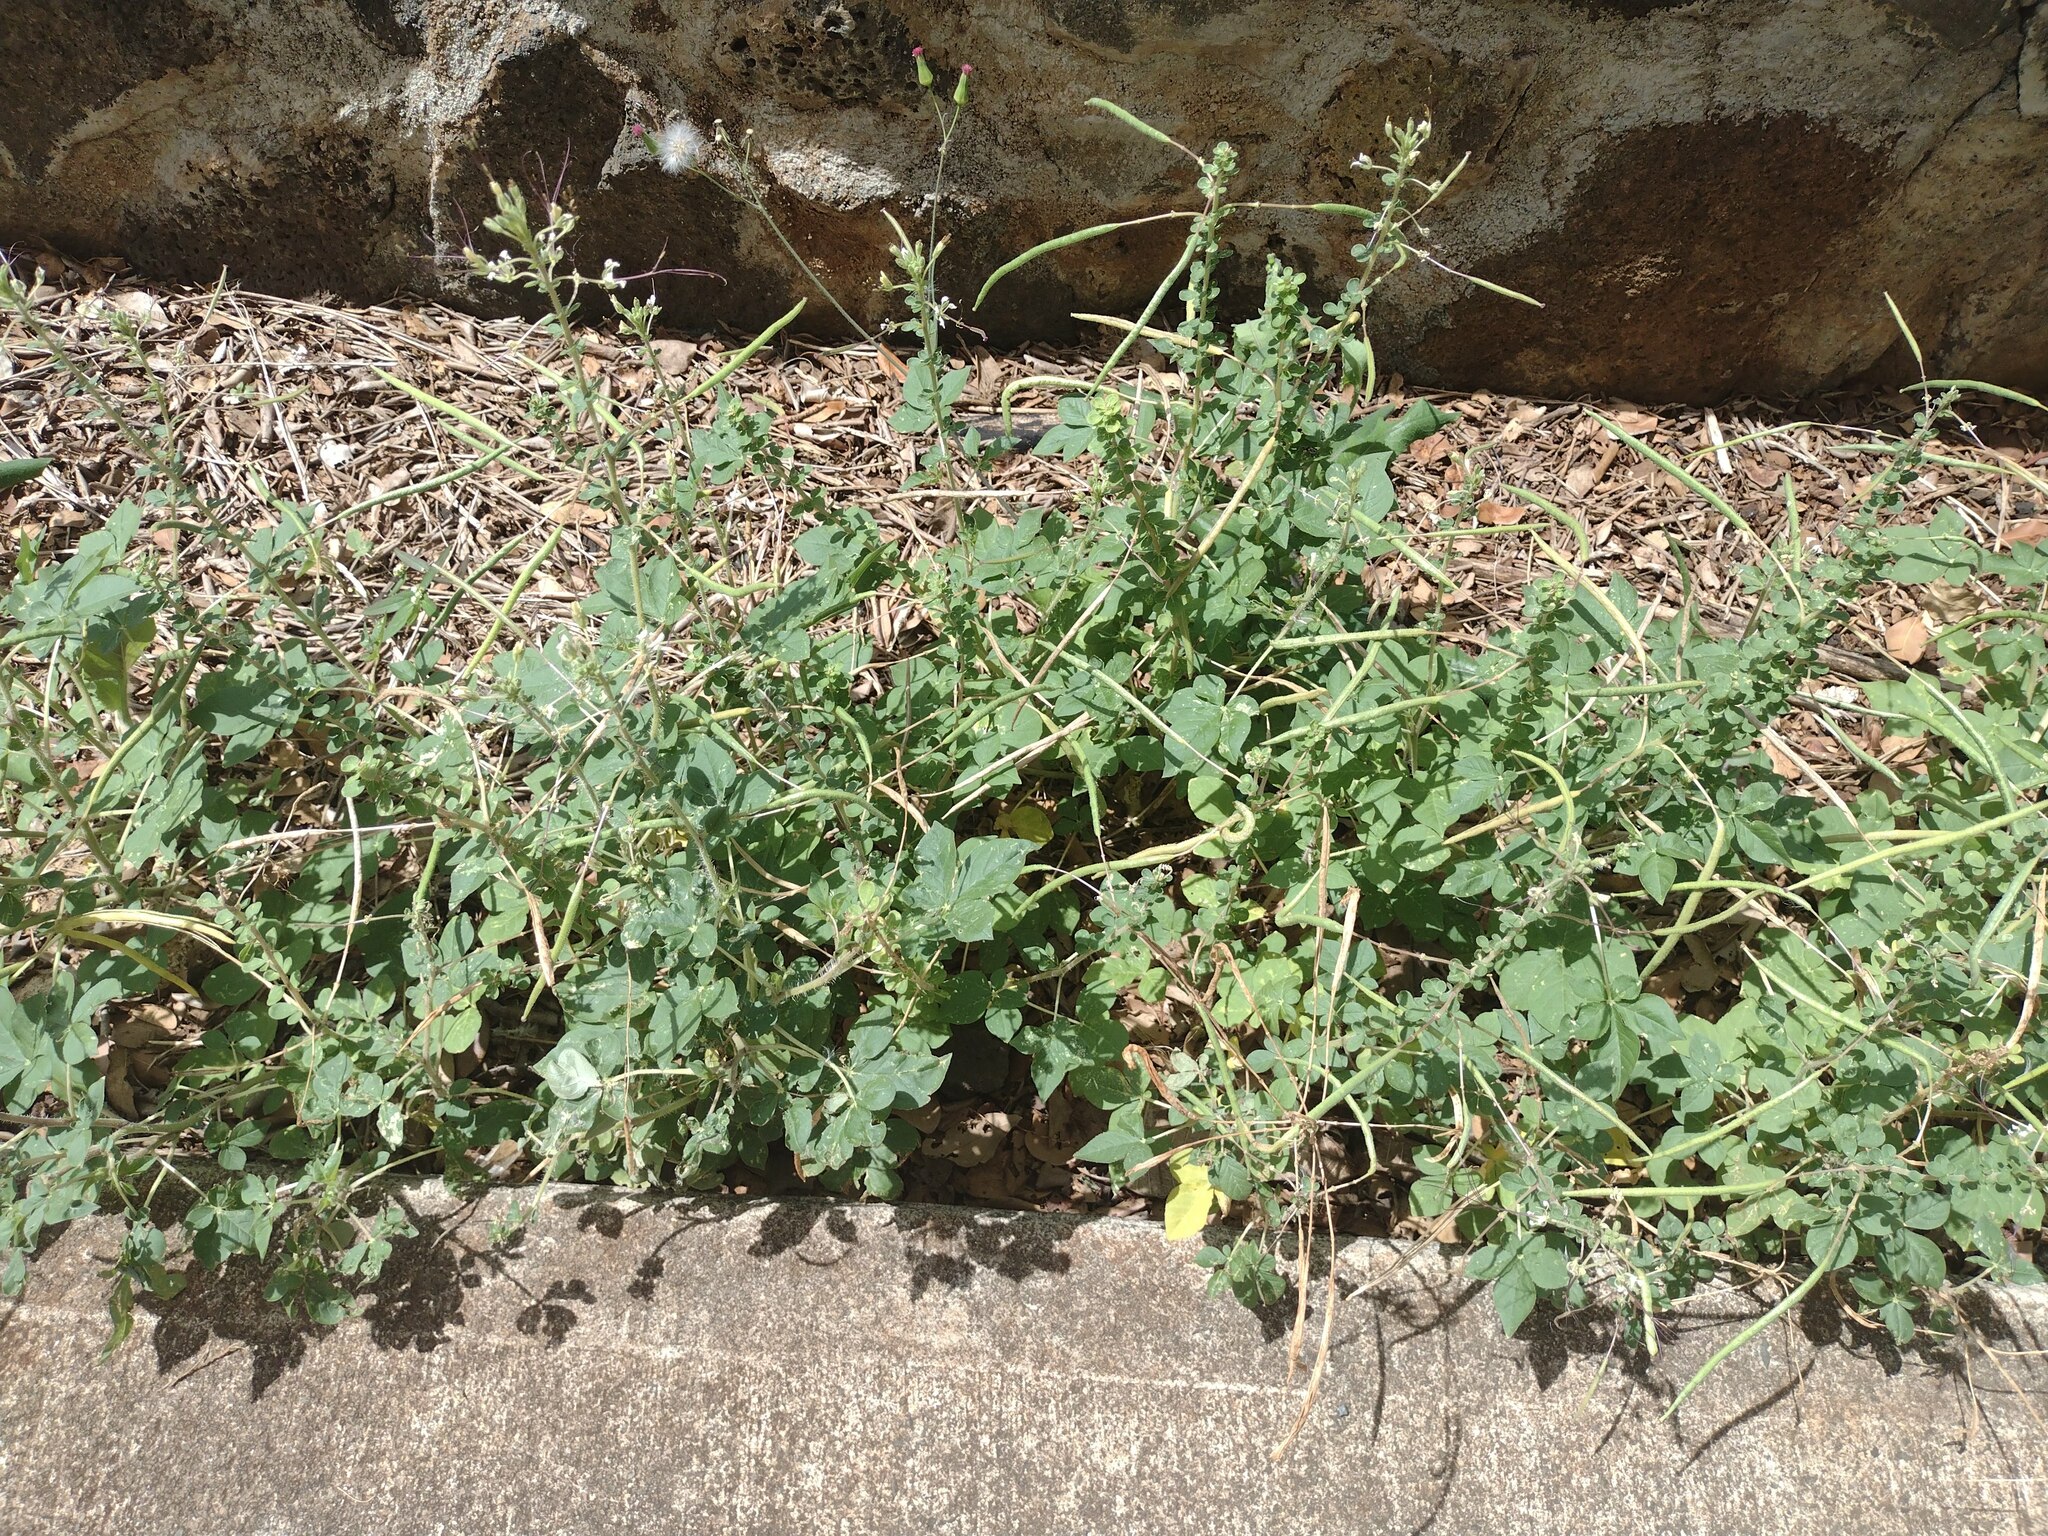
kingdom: Plantae
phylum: Tracheophyta
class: Magnoliopsida
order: Brassicales
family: Cleomaceae
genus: Gynandropsis
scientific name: Gynandropsis gynandra
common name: Spiderwisp
